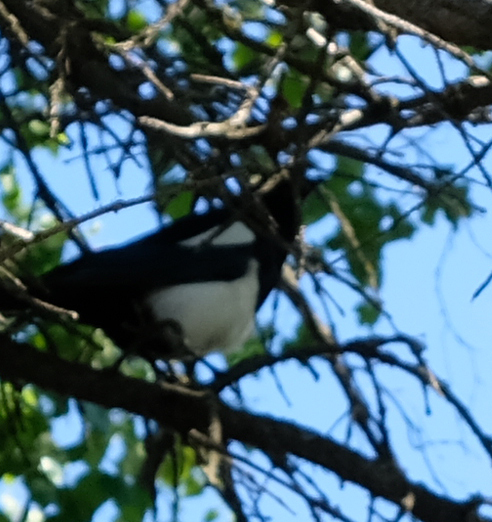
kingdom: Animalia
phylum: Chordata
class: Aves
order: Passeriformes
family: Corvidae
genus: Pica
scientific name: Pica hudsonia
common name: Black-billed magpie
